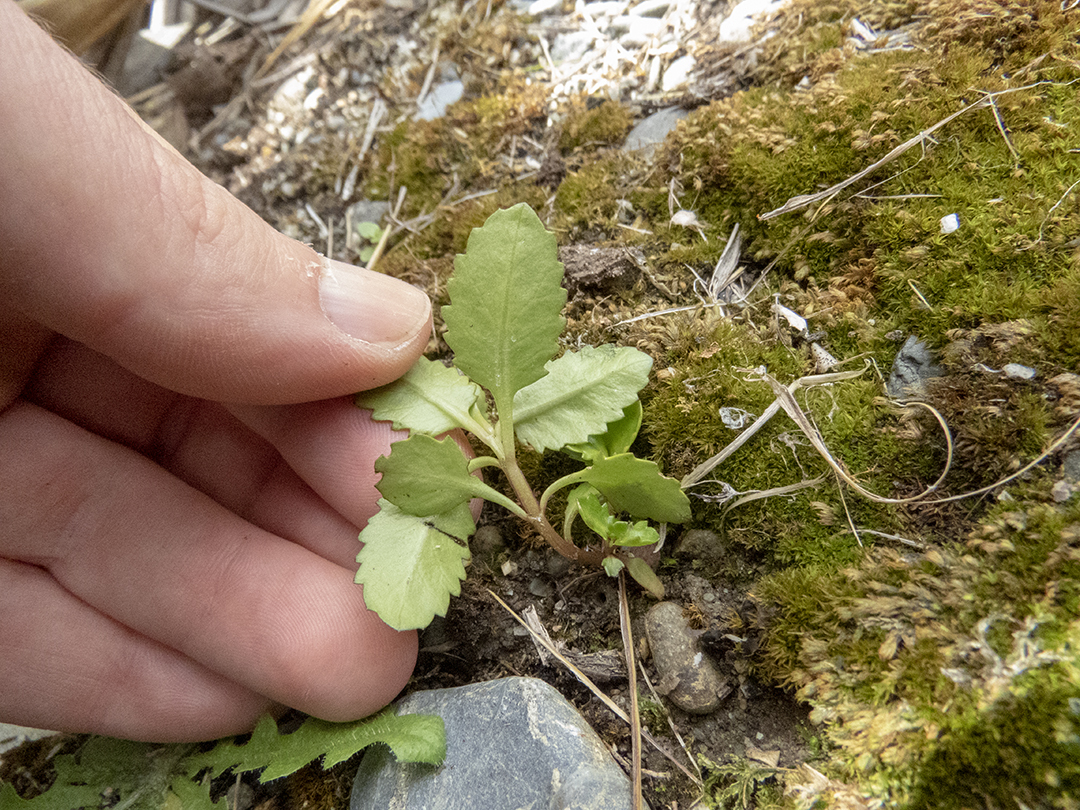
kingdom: Plantae
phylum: Tracheophyta
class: Magnoliopsida
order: Saxifragales
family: Haloragaceae
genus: Haloragis
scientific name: Haloragis erecta
